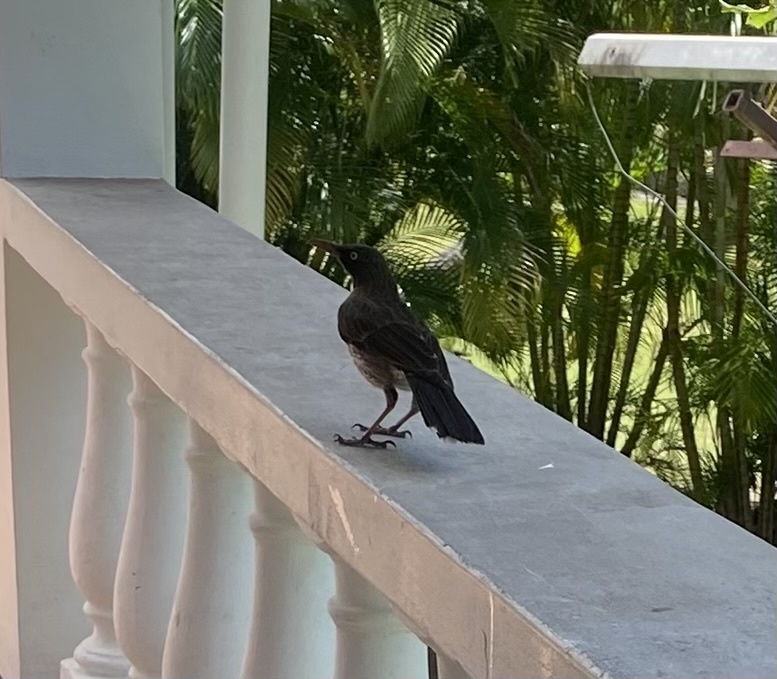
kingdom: Animalia
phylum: Chordata
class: Aves
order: Passeriformes
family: Mimidae
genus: Margarops
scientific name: Margarops fuscatus
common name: Pearly-eyed thrasher
